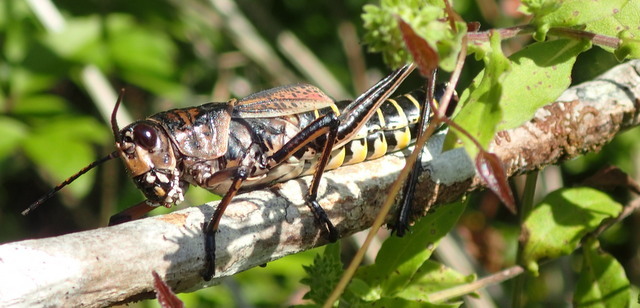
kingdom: Animalia
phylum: Arthropoda
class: Insecta
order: Orthoptera
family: Romaleidae
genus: Romalea
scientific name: Romalea microptera
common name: Eastern lubber grasshopper
